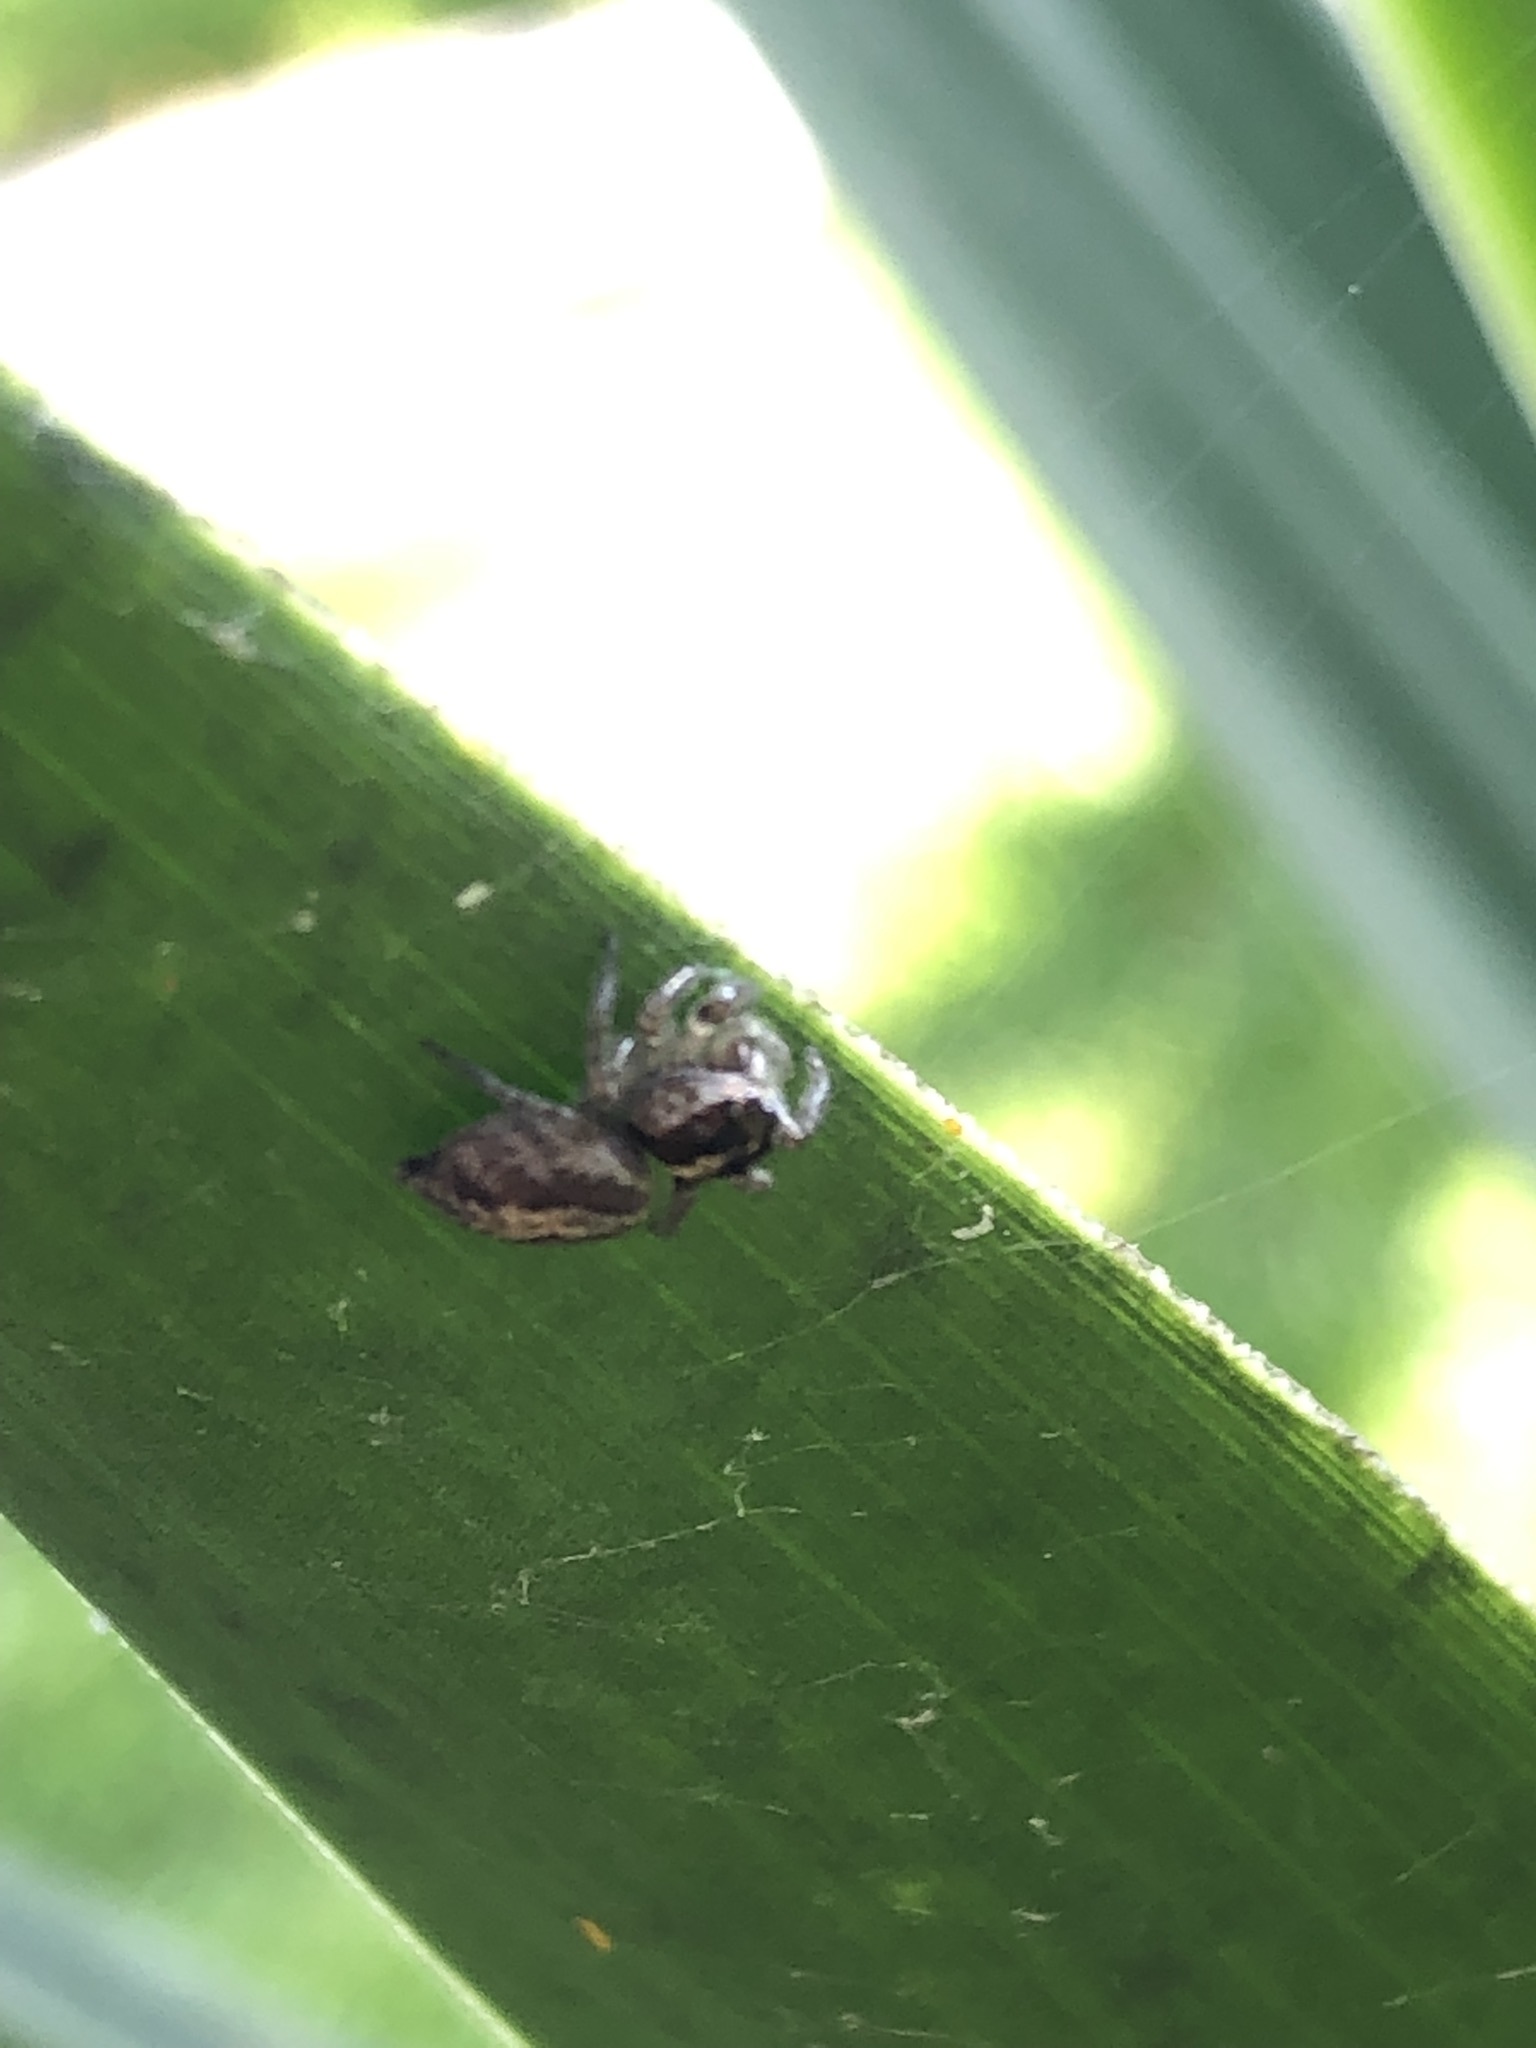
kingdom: Animalia
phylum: Arthropoda
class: Arachnida
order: Araneae
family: Salticidae
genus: Frigga
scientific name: Frigga crocuta
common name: Jumping spiders
